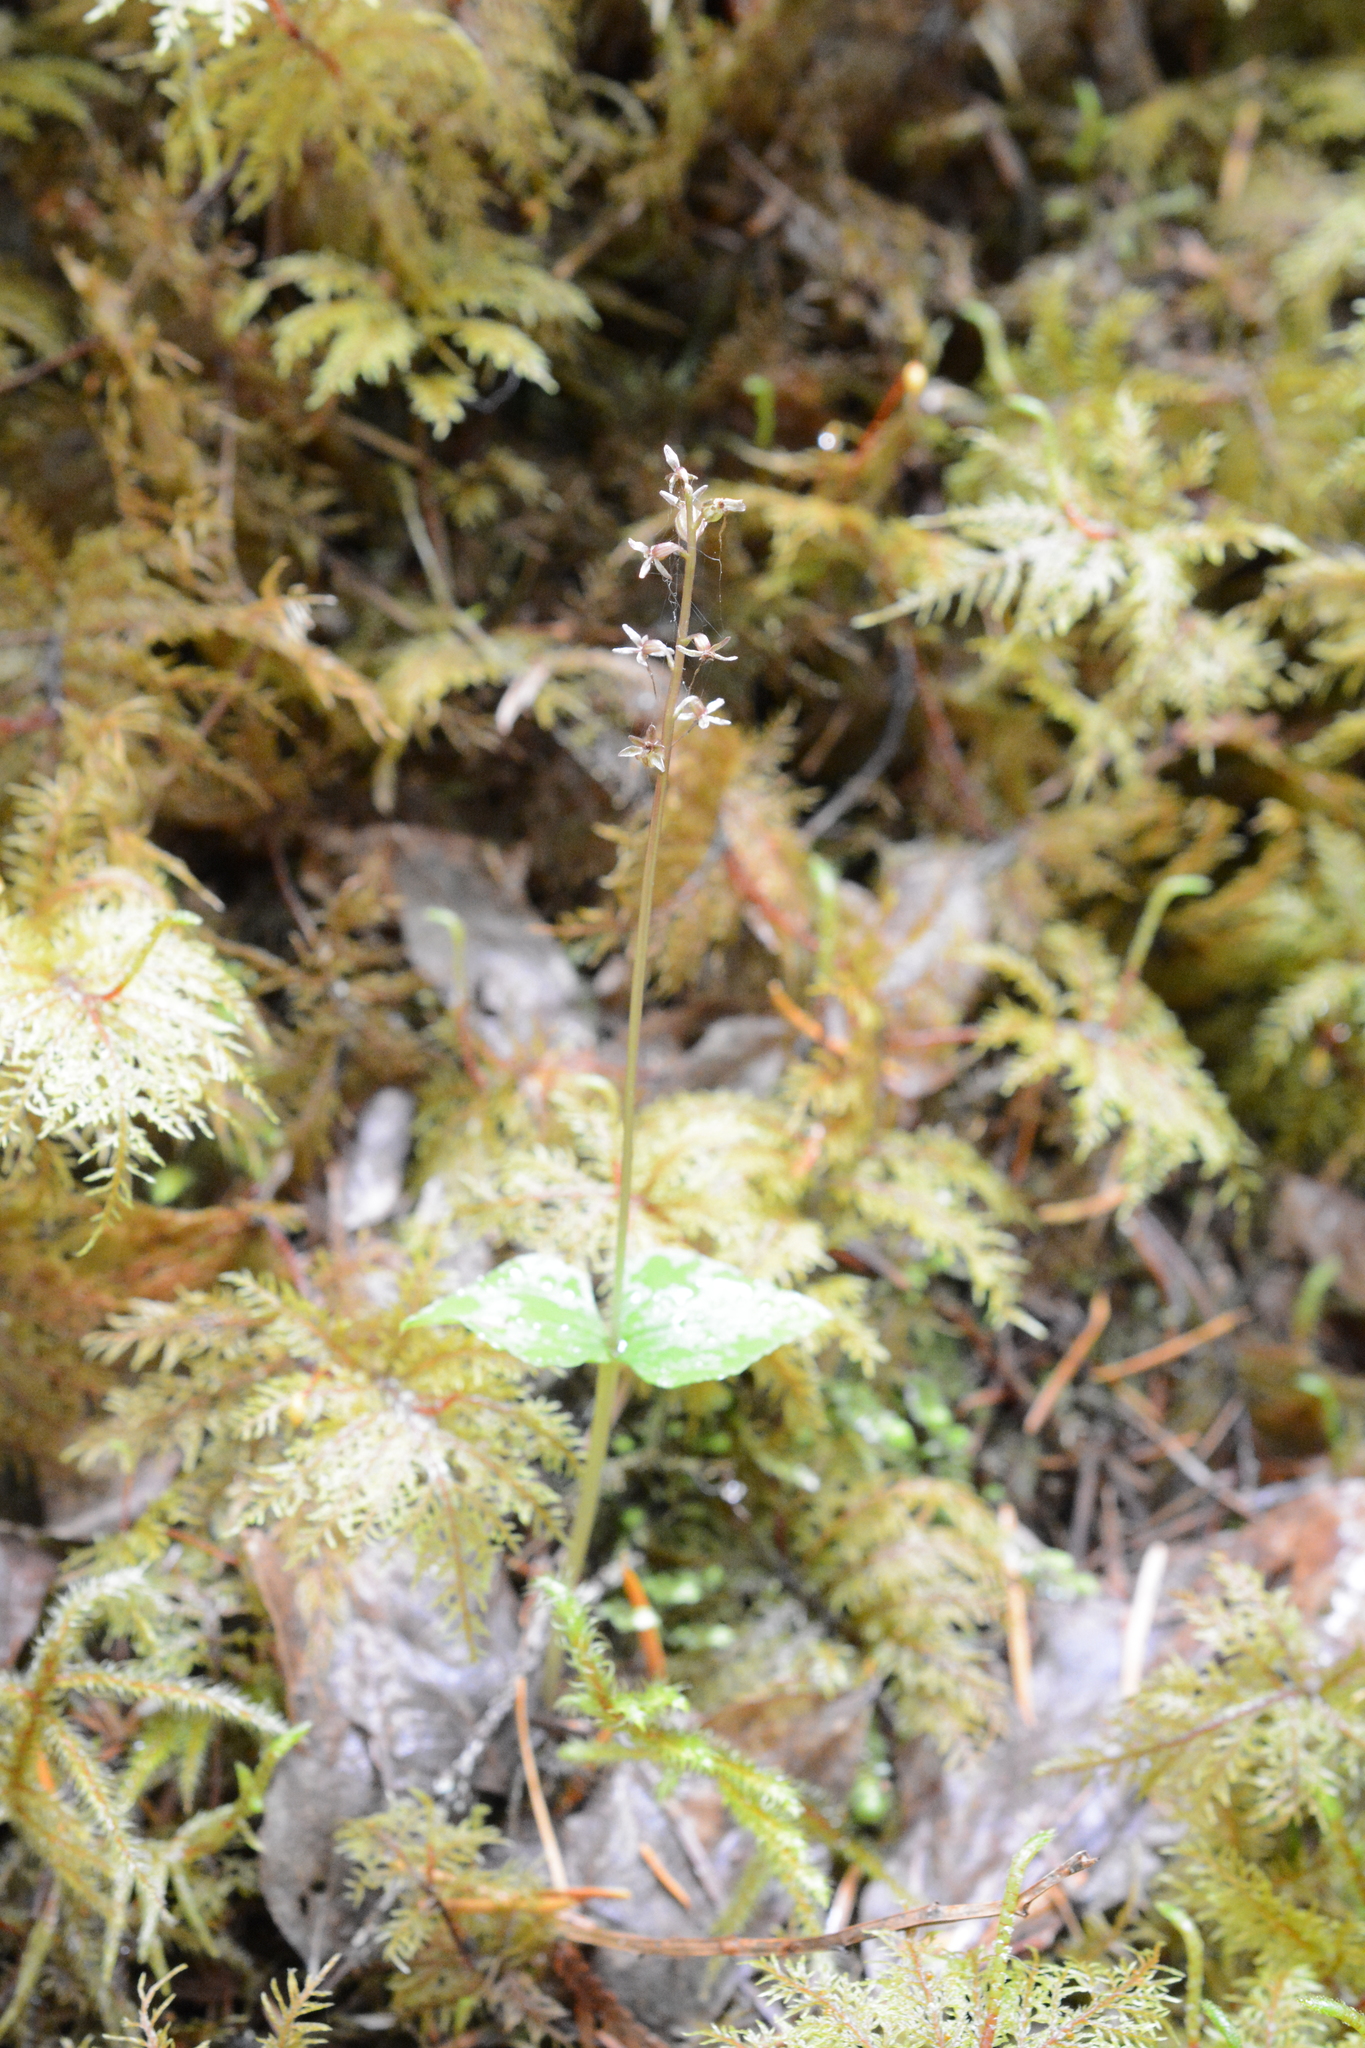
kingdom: Plantae
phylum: Tracheophyta
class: Liliopsida
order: Asparagales
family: Orchidaceae
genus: Neottia
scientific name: Neottia cordata
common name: Lesser twayblade
